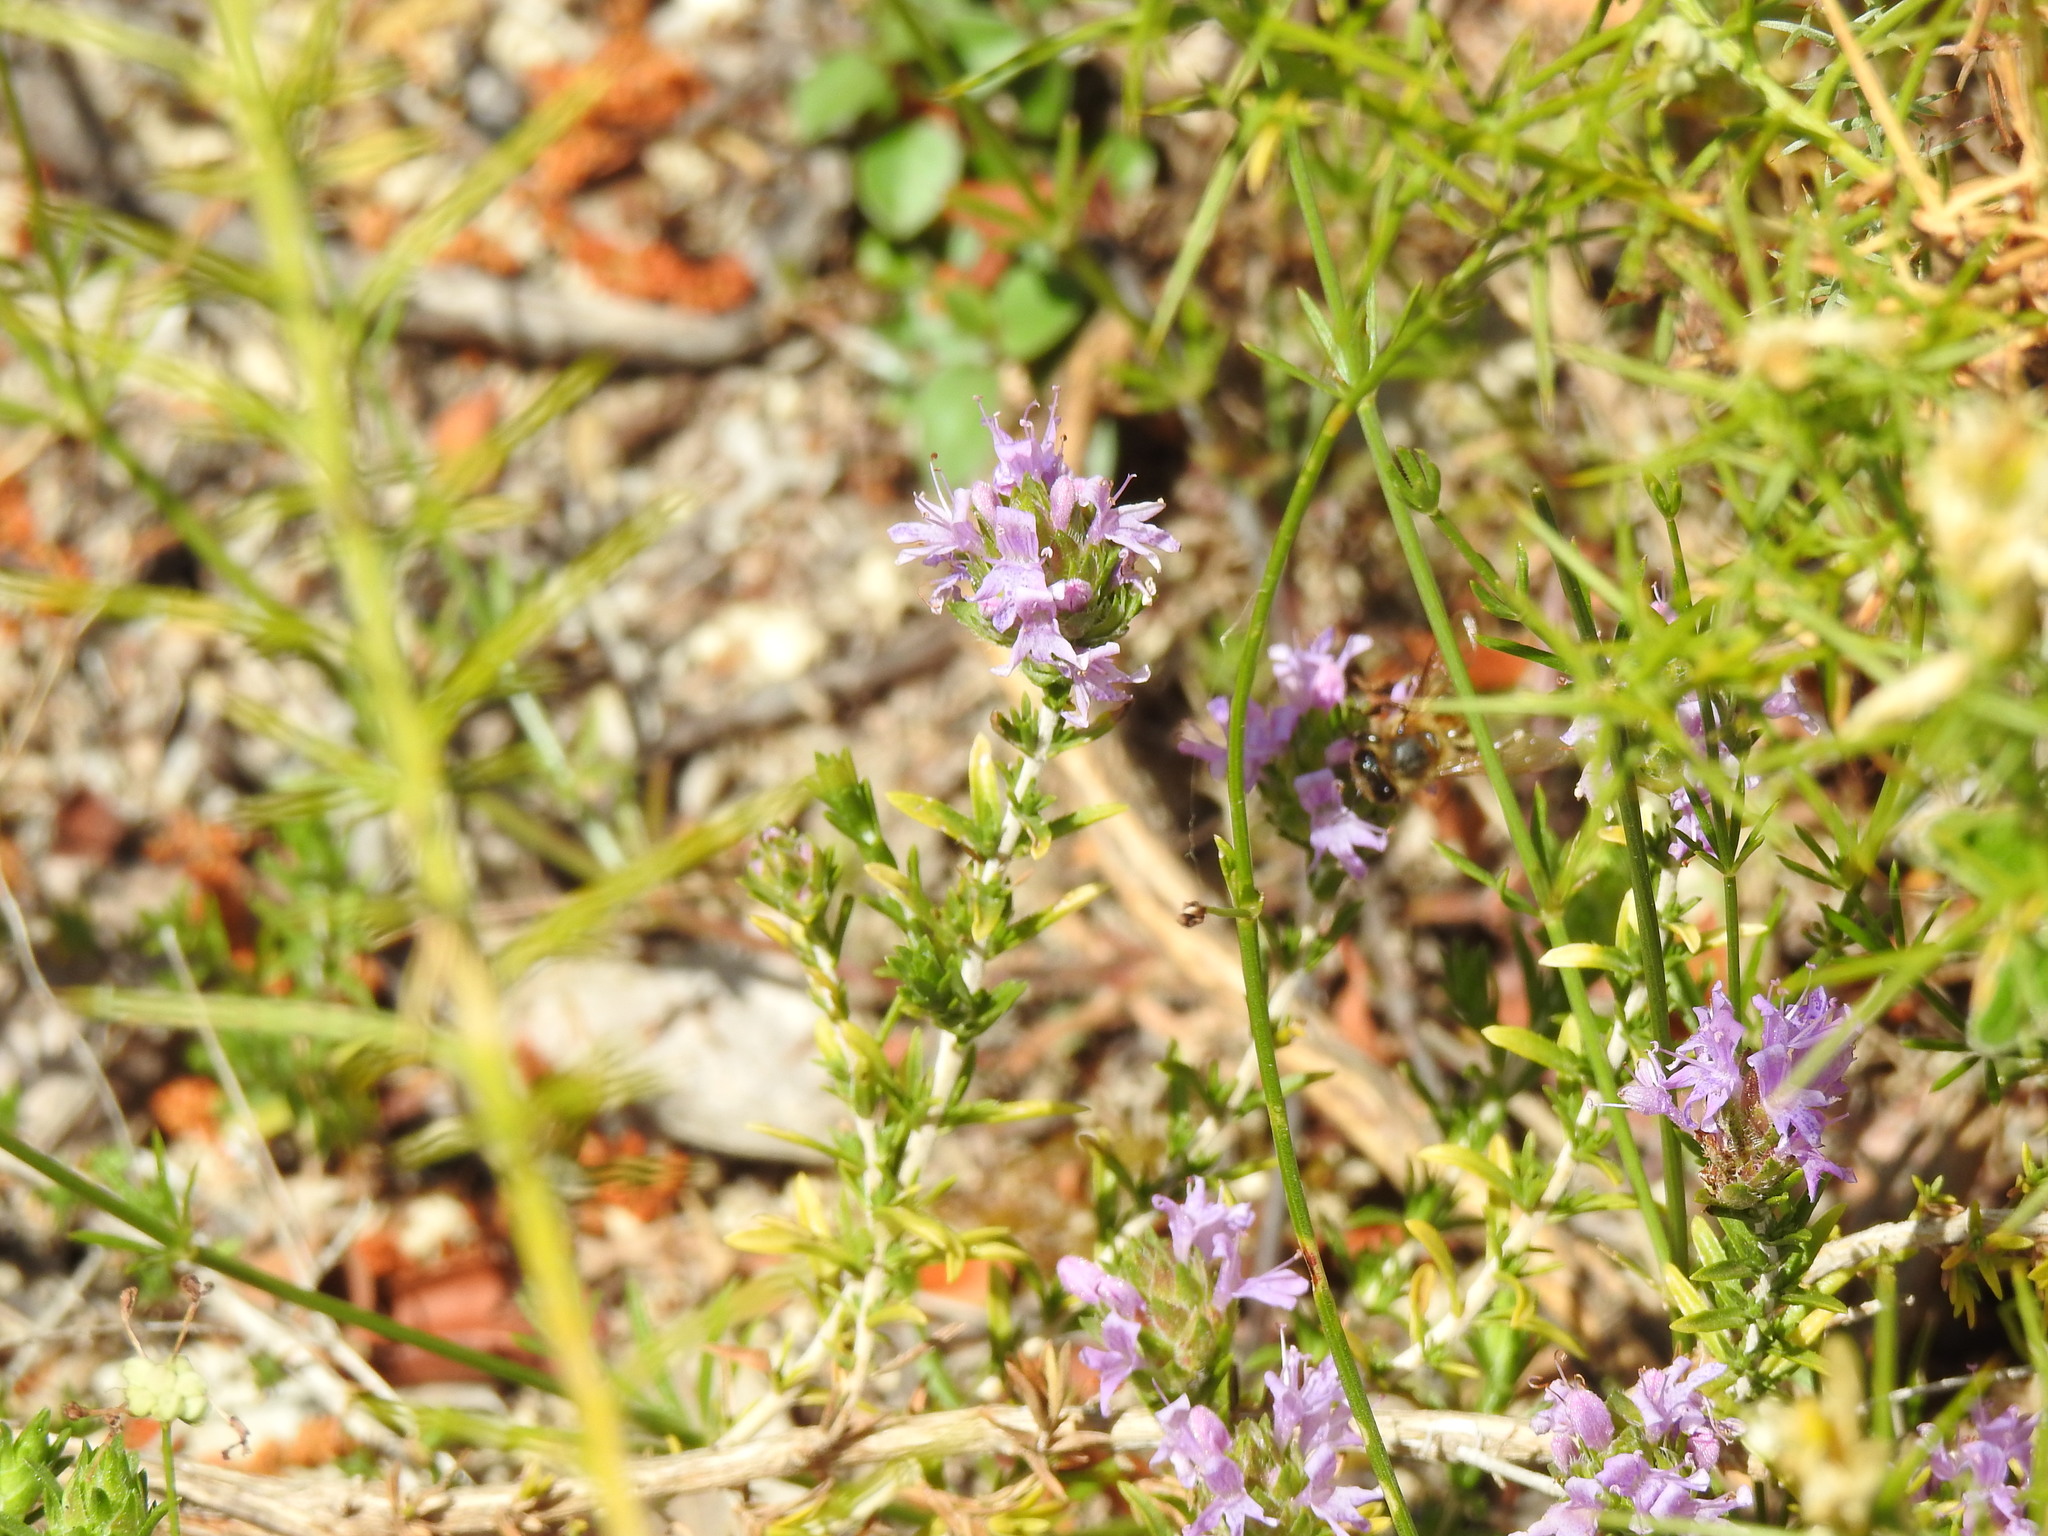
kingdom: Plantae
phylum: Tracheophyta
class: Magnoliopsida
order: Lamiales
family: Lamiaceae
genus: Thymbra
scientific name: Thymbra capitata
